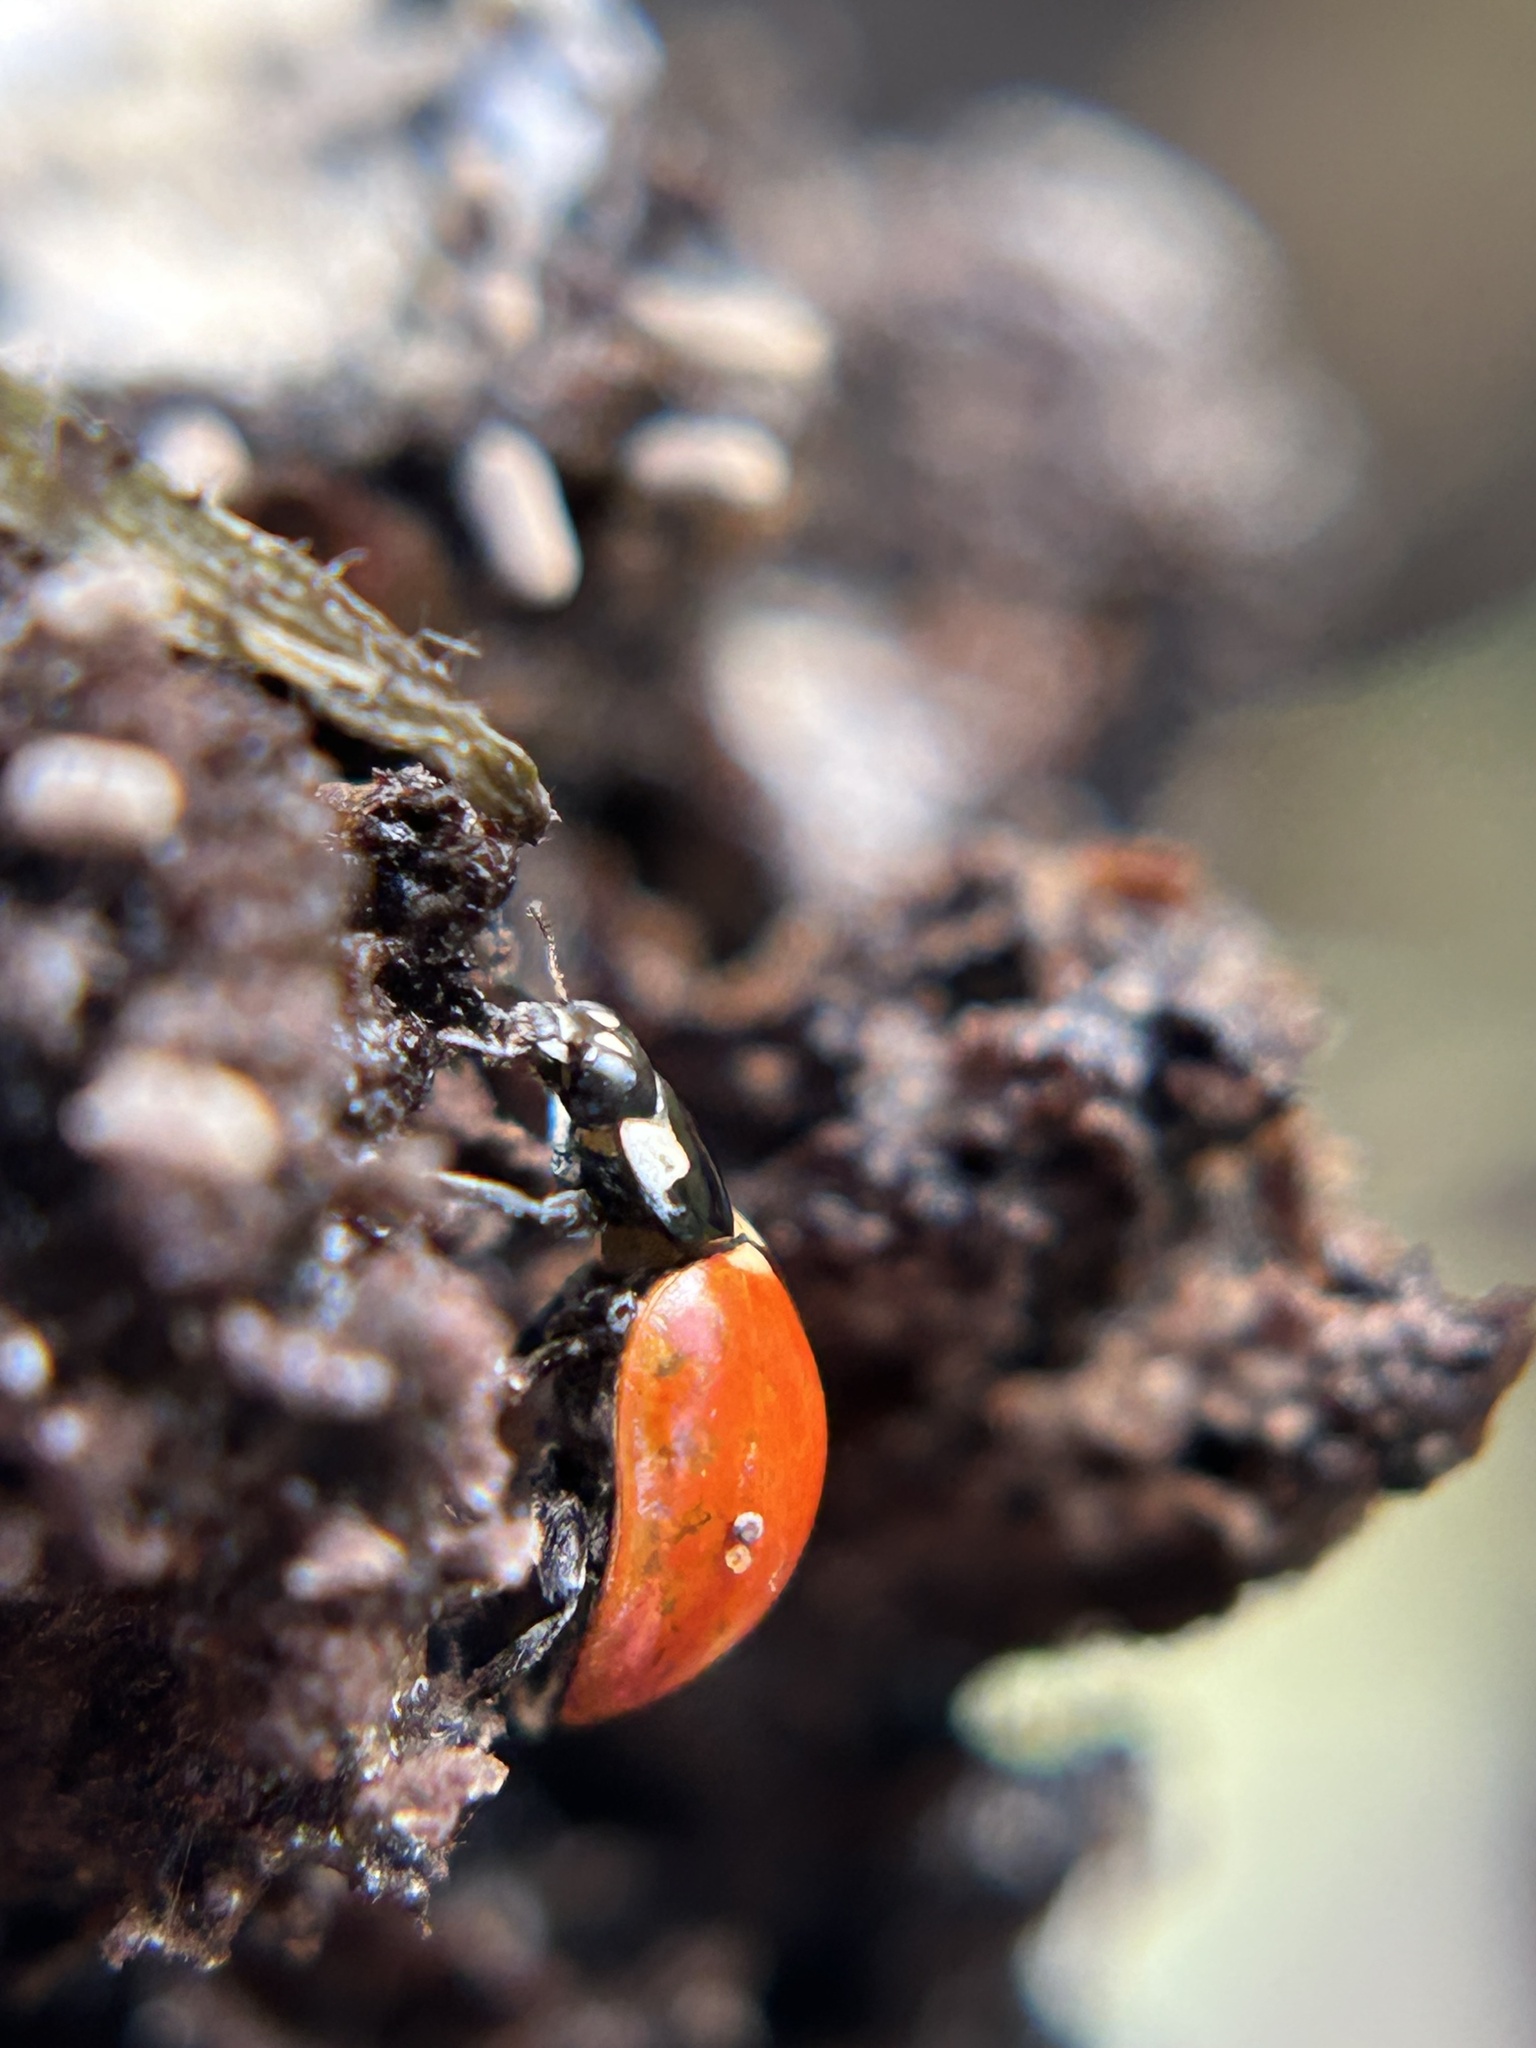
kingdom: Animalia
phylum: Arthropoda
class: Insecta
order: Coleoptera
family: Coccinellidae
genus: Coccinella
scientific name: Coccinella californica
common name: Lady beetle
